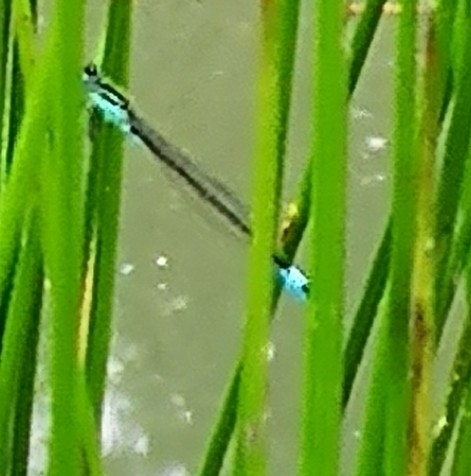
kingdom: Animalia
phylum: Arthropoda
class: Insecta
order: Odonata
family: Coenagrionidae
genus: Ischnura
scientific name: Ischnura elegans
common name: Blue-tailed damselfly
